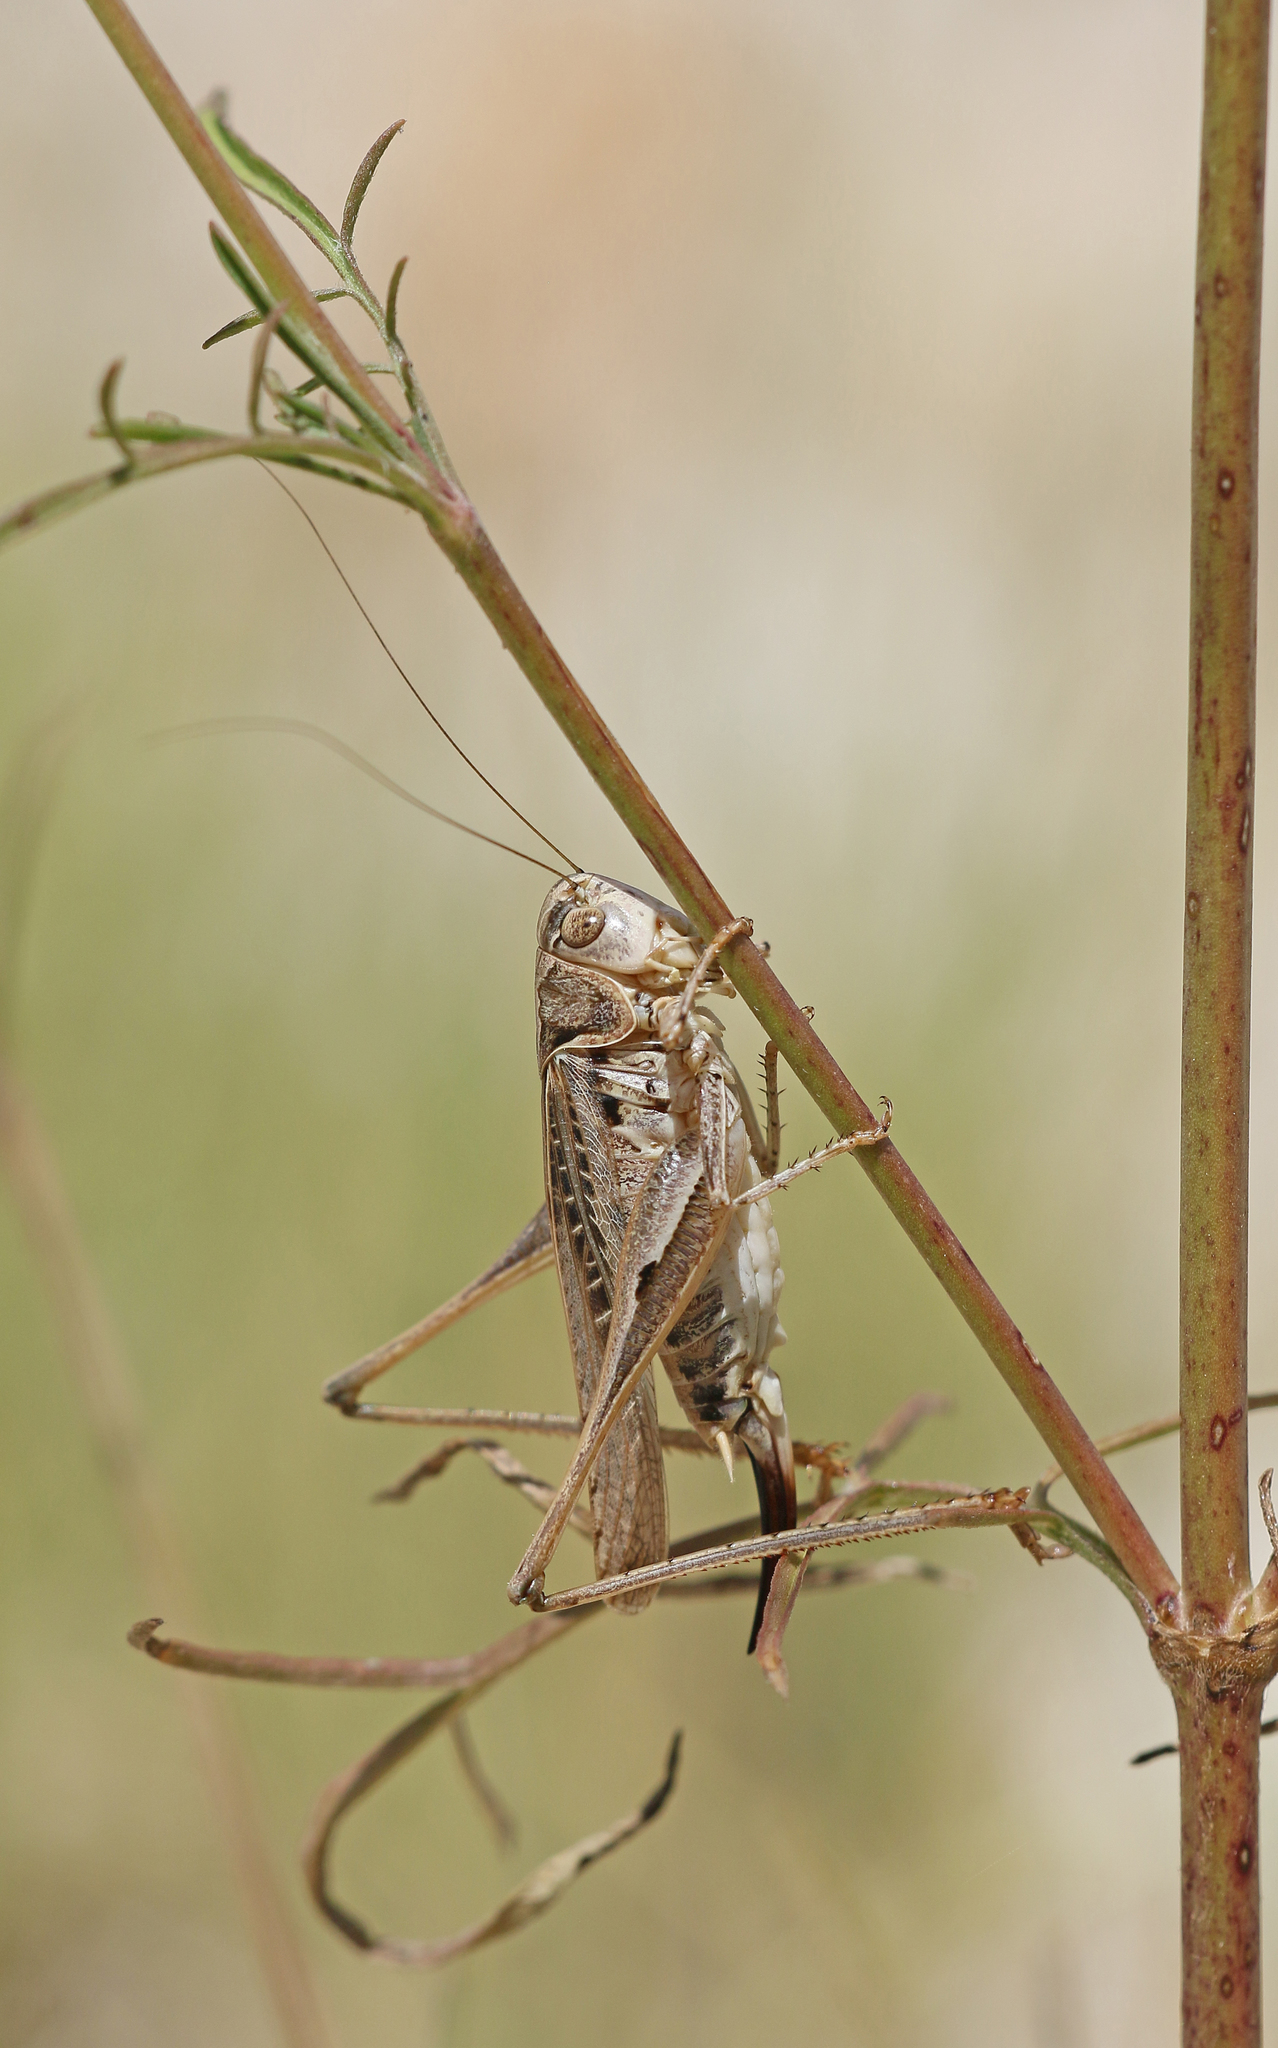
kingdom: Animalia
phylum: Arthropoda
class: Insecta
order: Orthoptera
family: Tettigoniidae
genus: Platycleis
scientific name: Platycleis affinis
